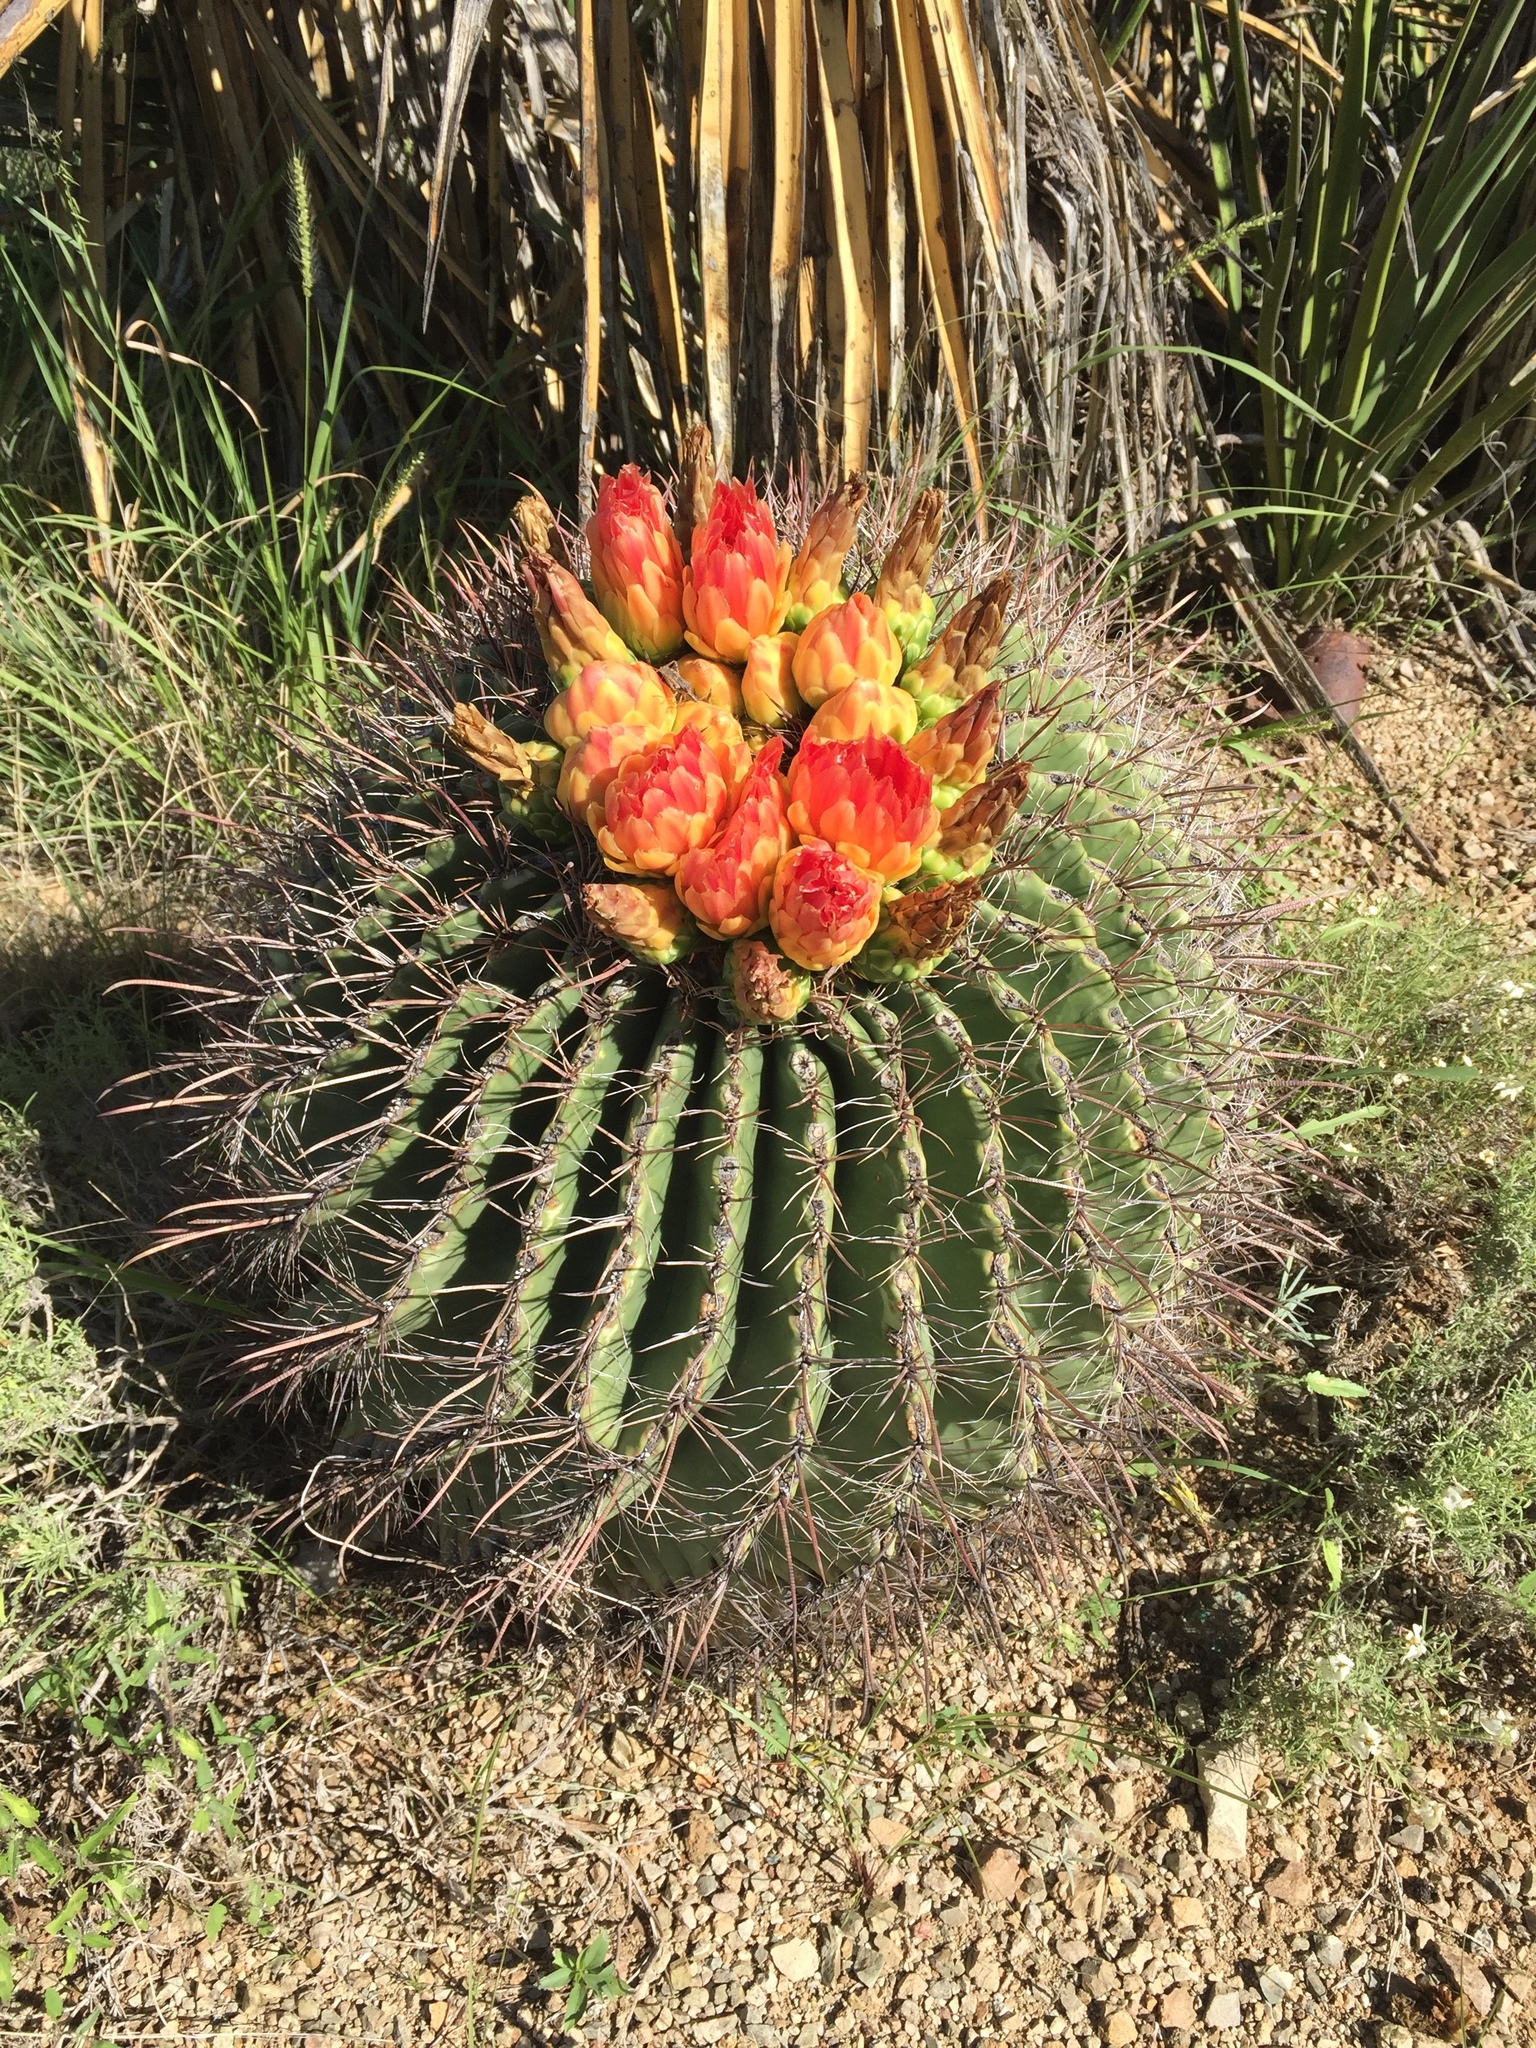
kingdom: Plantae
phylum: Tracheophyta
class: Magnoliopsida
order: Caryophyllales
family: Cactaceae
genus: Ferocactus
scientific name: Ferocactus wislizeni
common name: Candy barrel cactus
